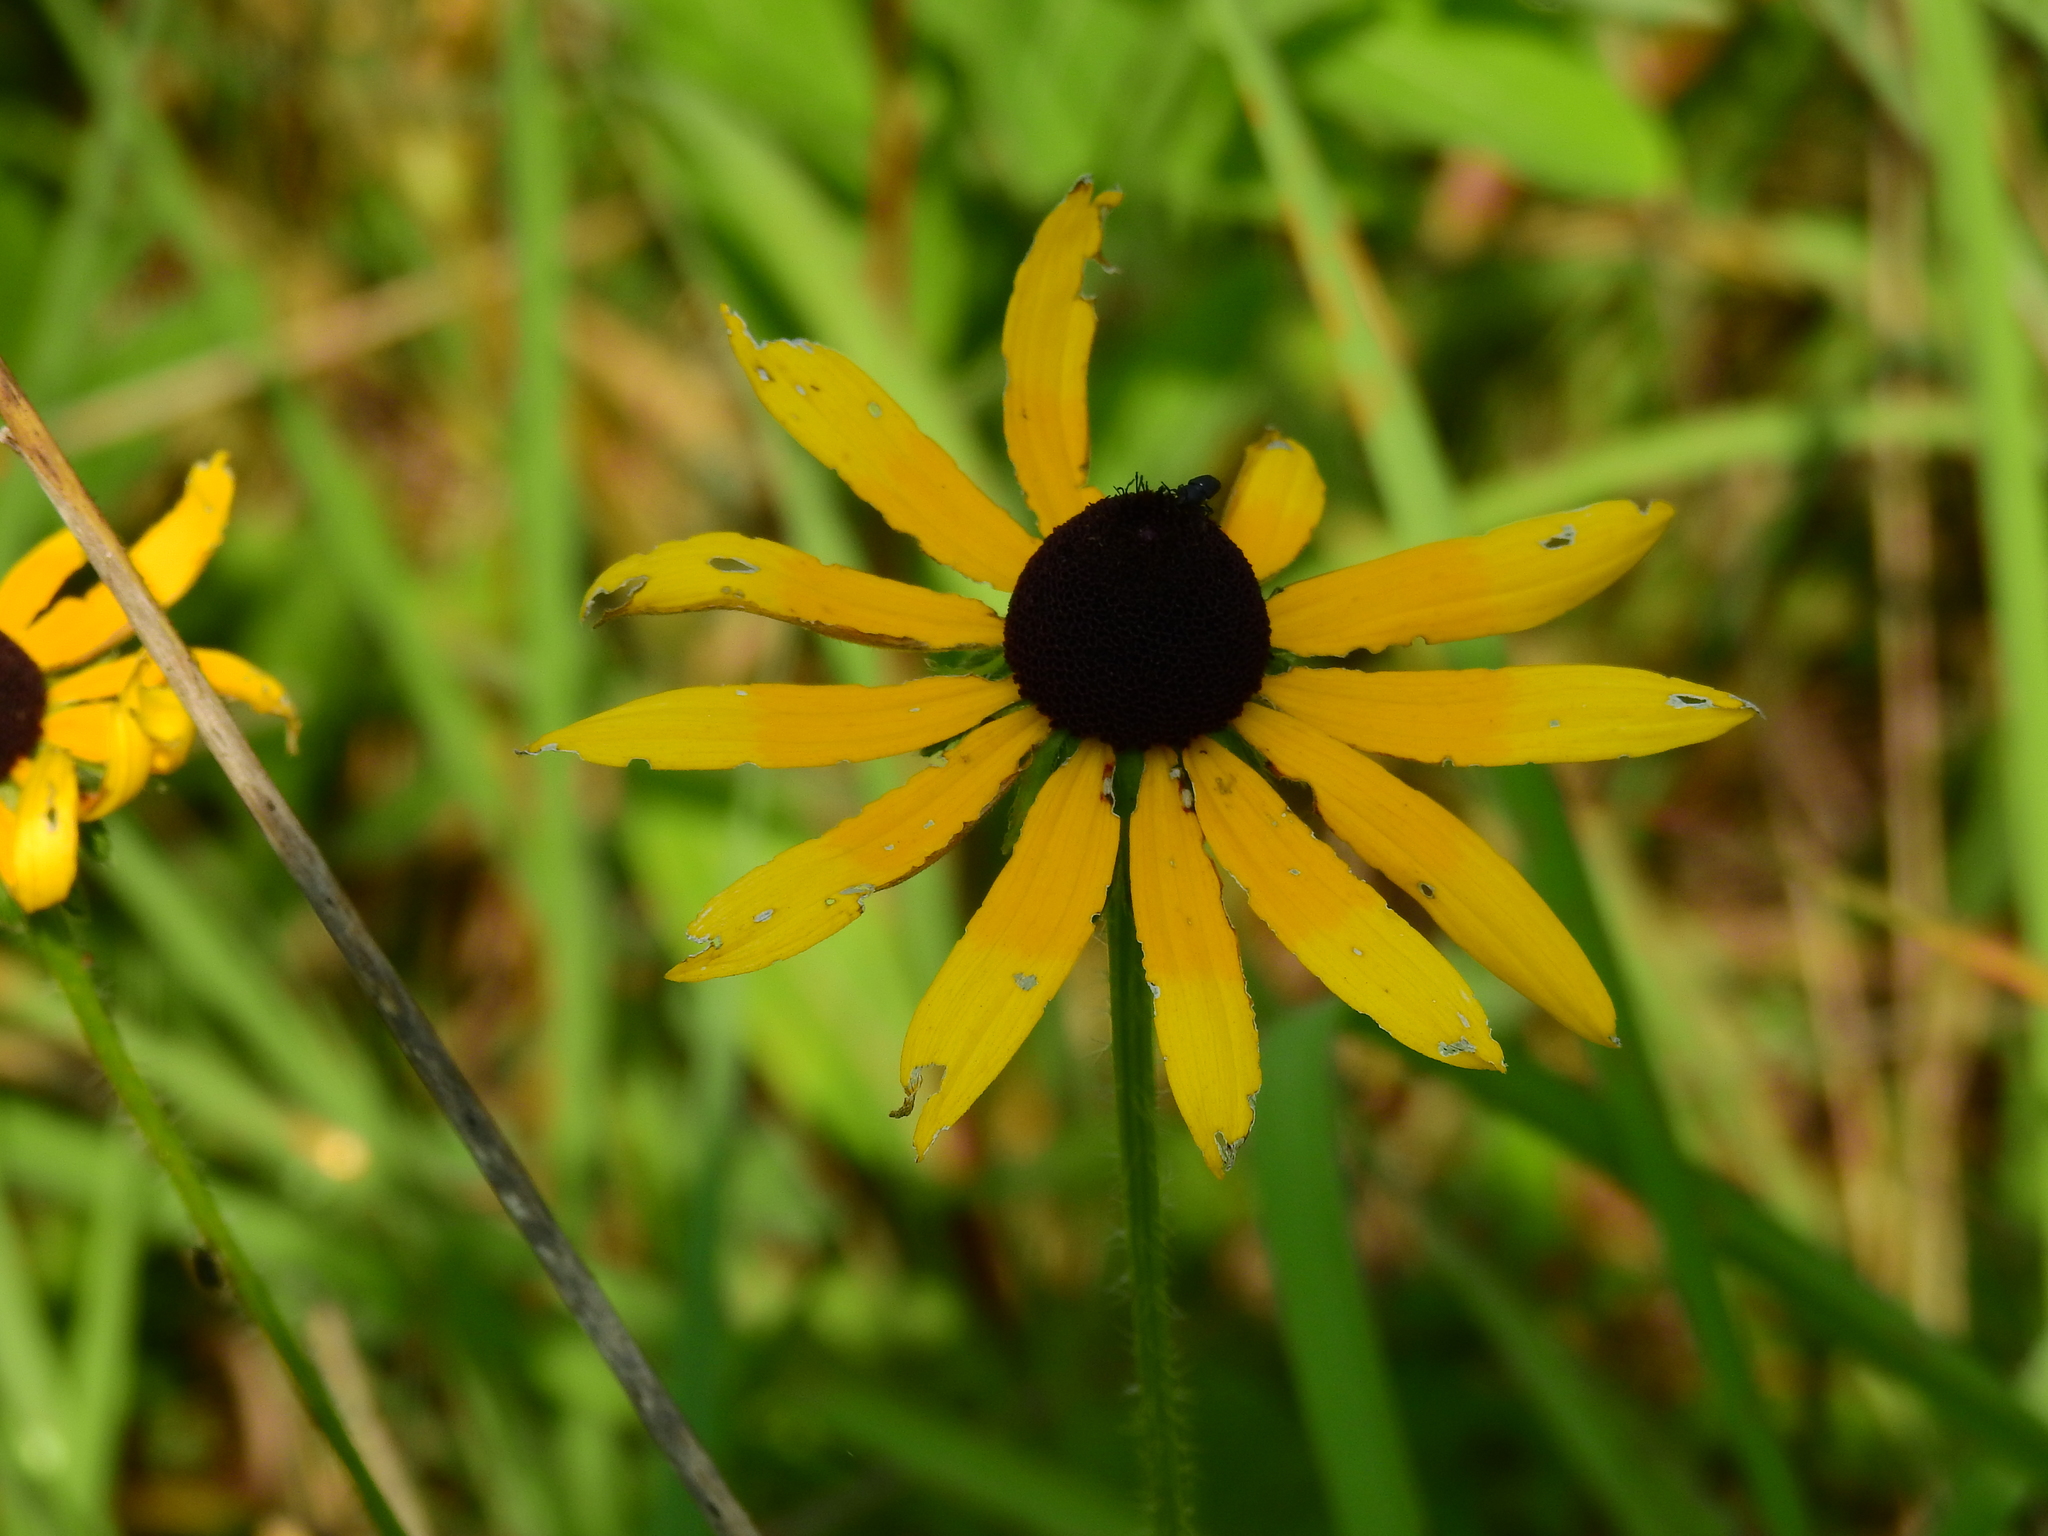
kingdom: Plantae
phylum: Tracheophyta
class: Magnoliopsida
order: Asterales
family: Asteraceae
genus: Rudbeckia
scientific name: Rudbeckia hirta
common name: Black-eyed-susan
